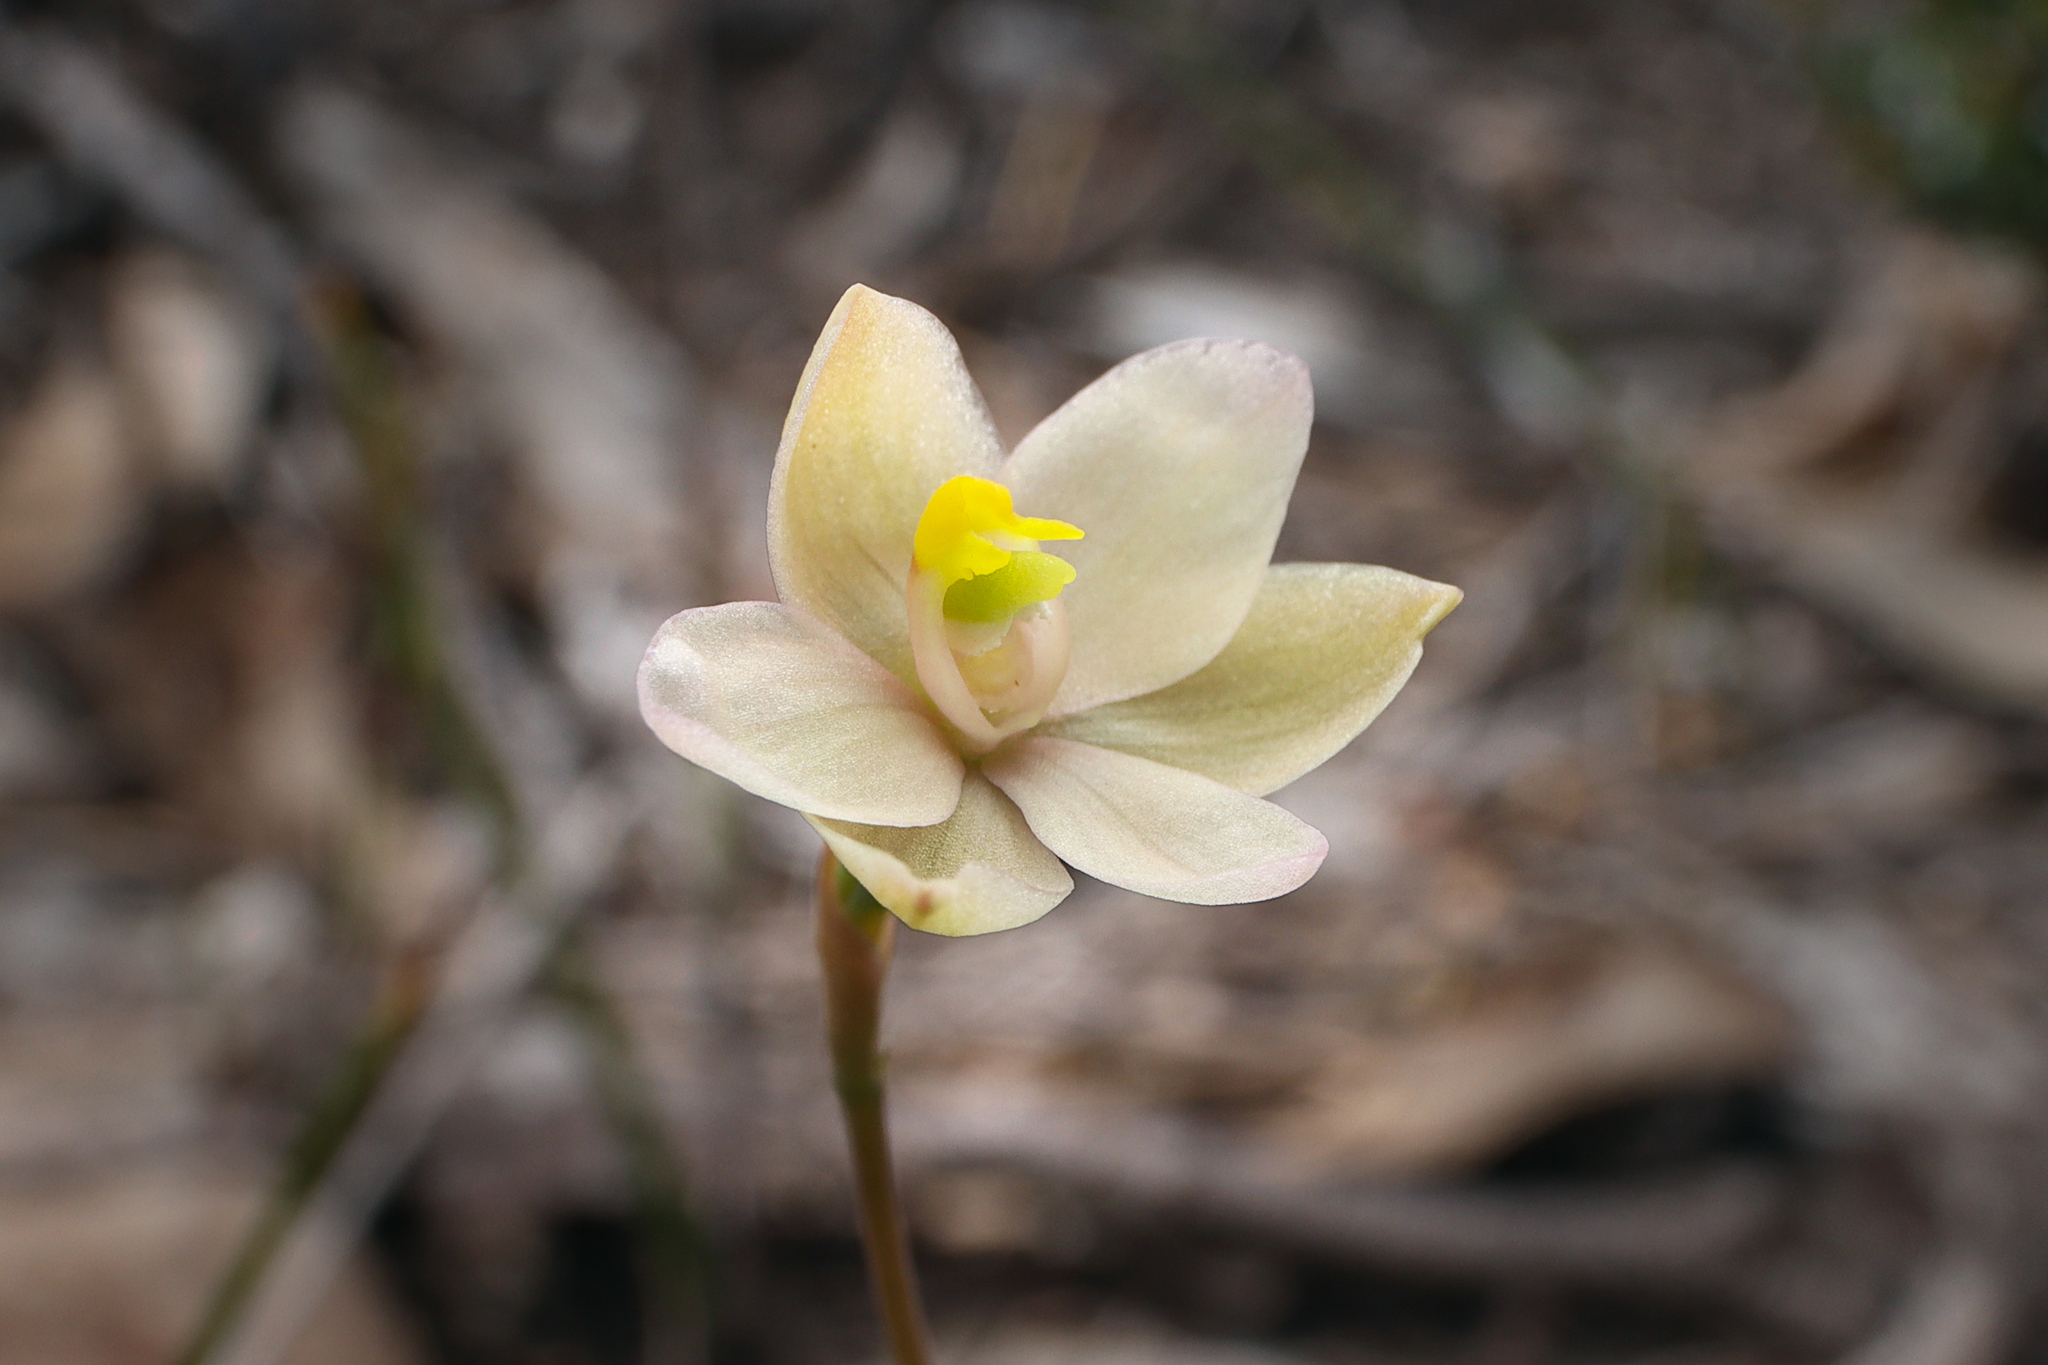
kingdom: Plantae
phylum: Tracheophyta
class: Liliopsida
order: Asparagales
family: Orchidaceae
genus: Thelymitra
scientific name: Thelymitra carnea
